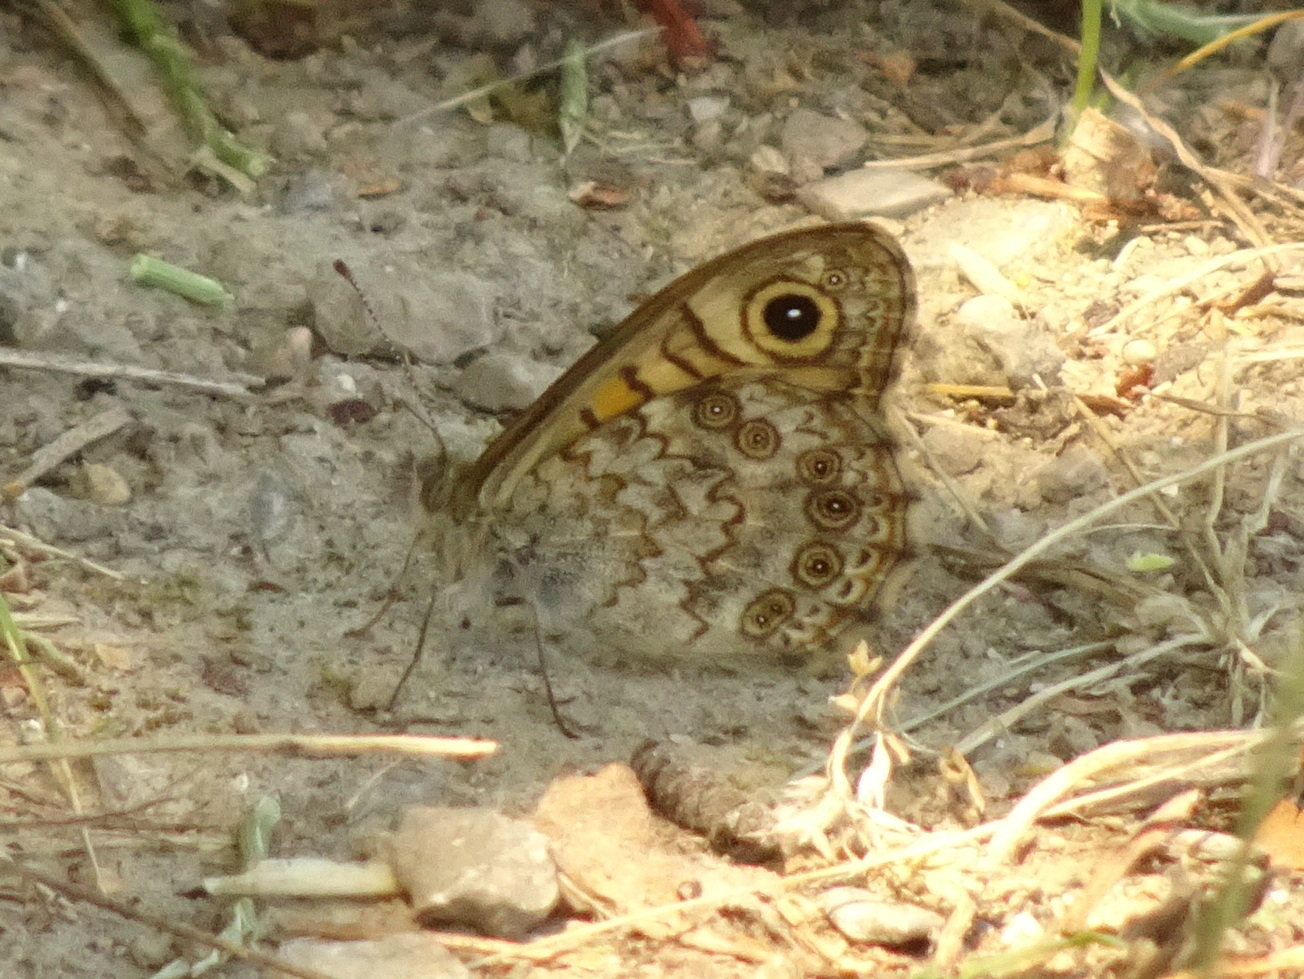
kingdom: Animalia
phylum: Arthropoda
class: Insecta
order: Lepidoptera
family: Nymphalidae
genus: Pararge
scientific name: Pararge Lasiommata megera
